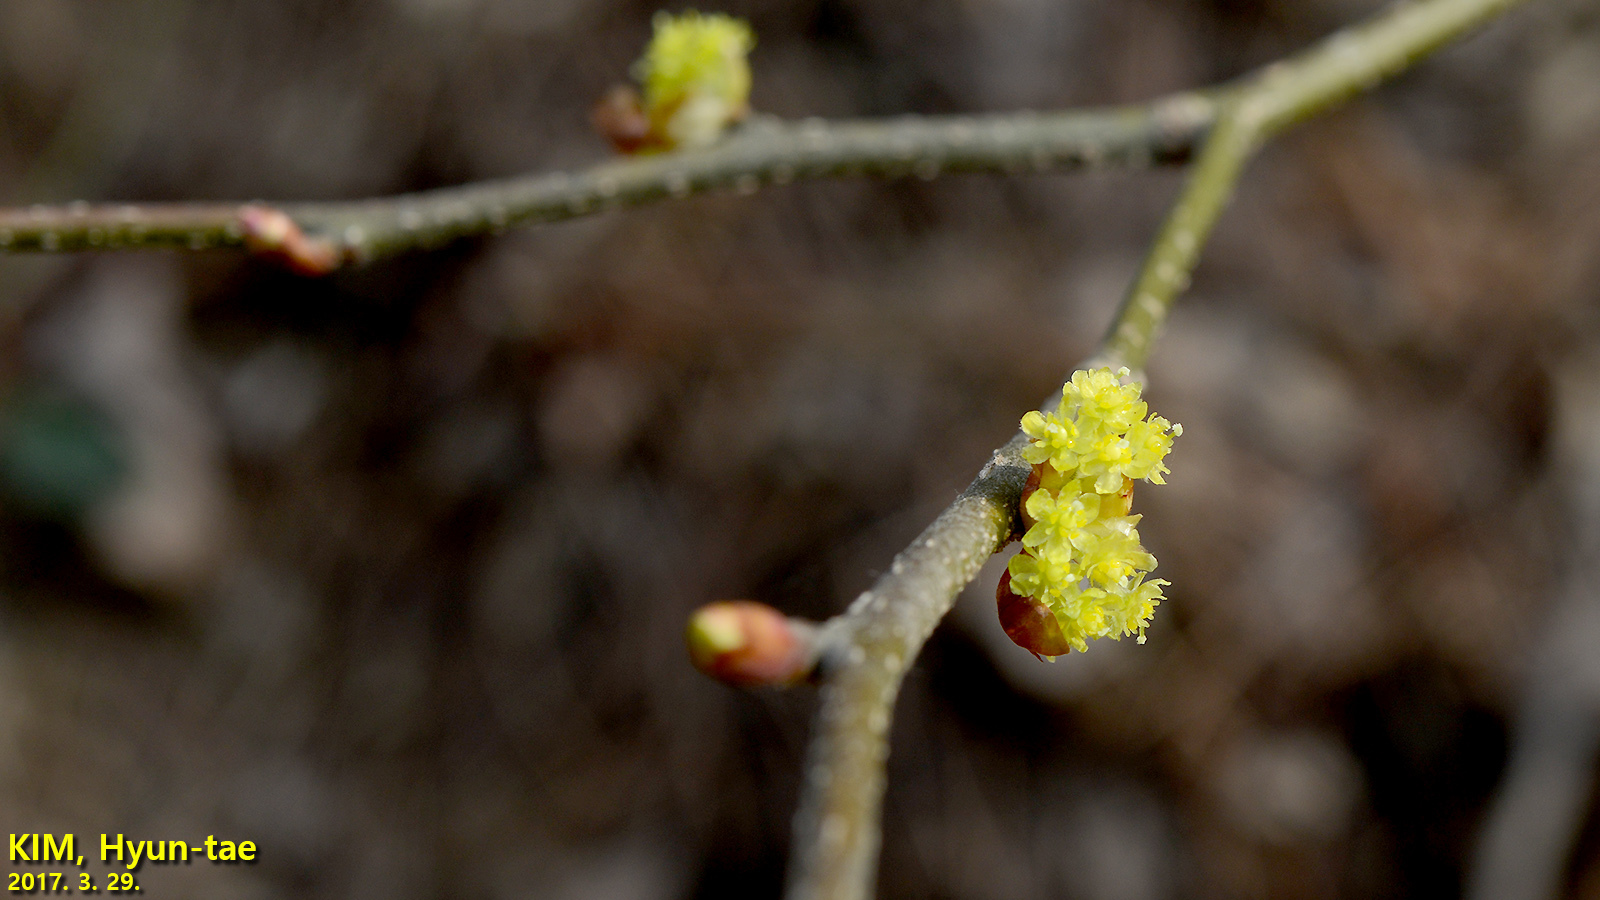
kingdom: Plantae
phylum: Tracheophyta
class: Magnoliopsida
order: Laurales
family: Lauraceae
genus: Lindera
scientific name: Lindera obtusiloba
